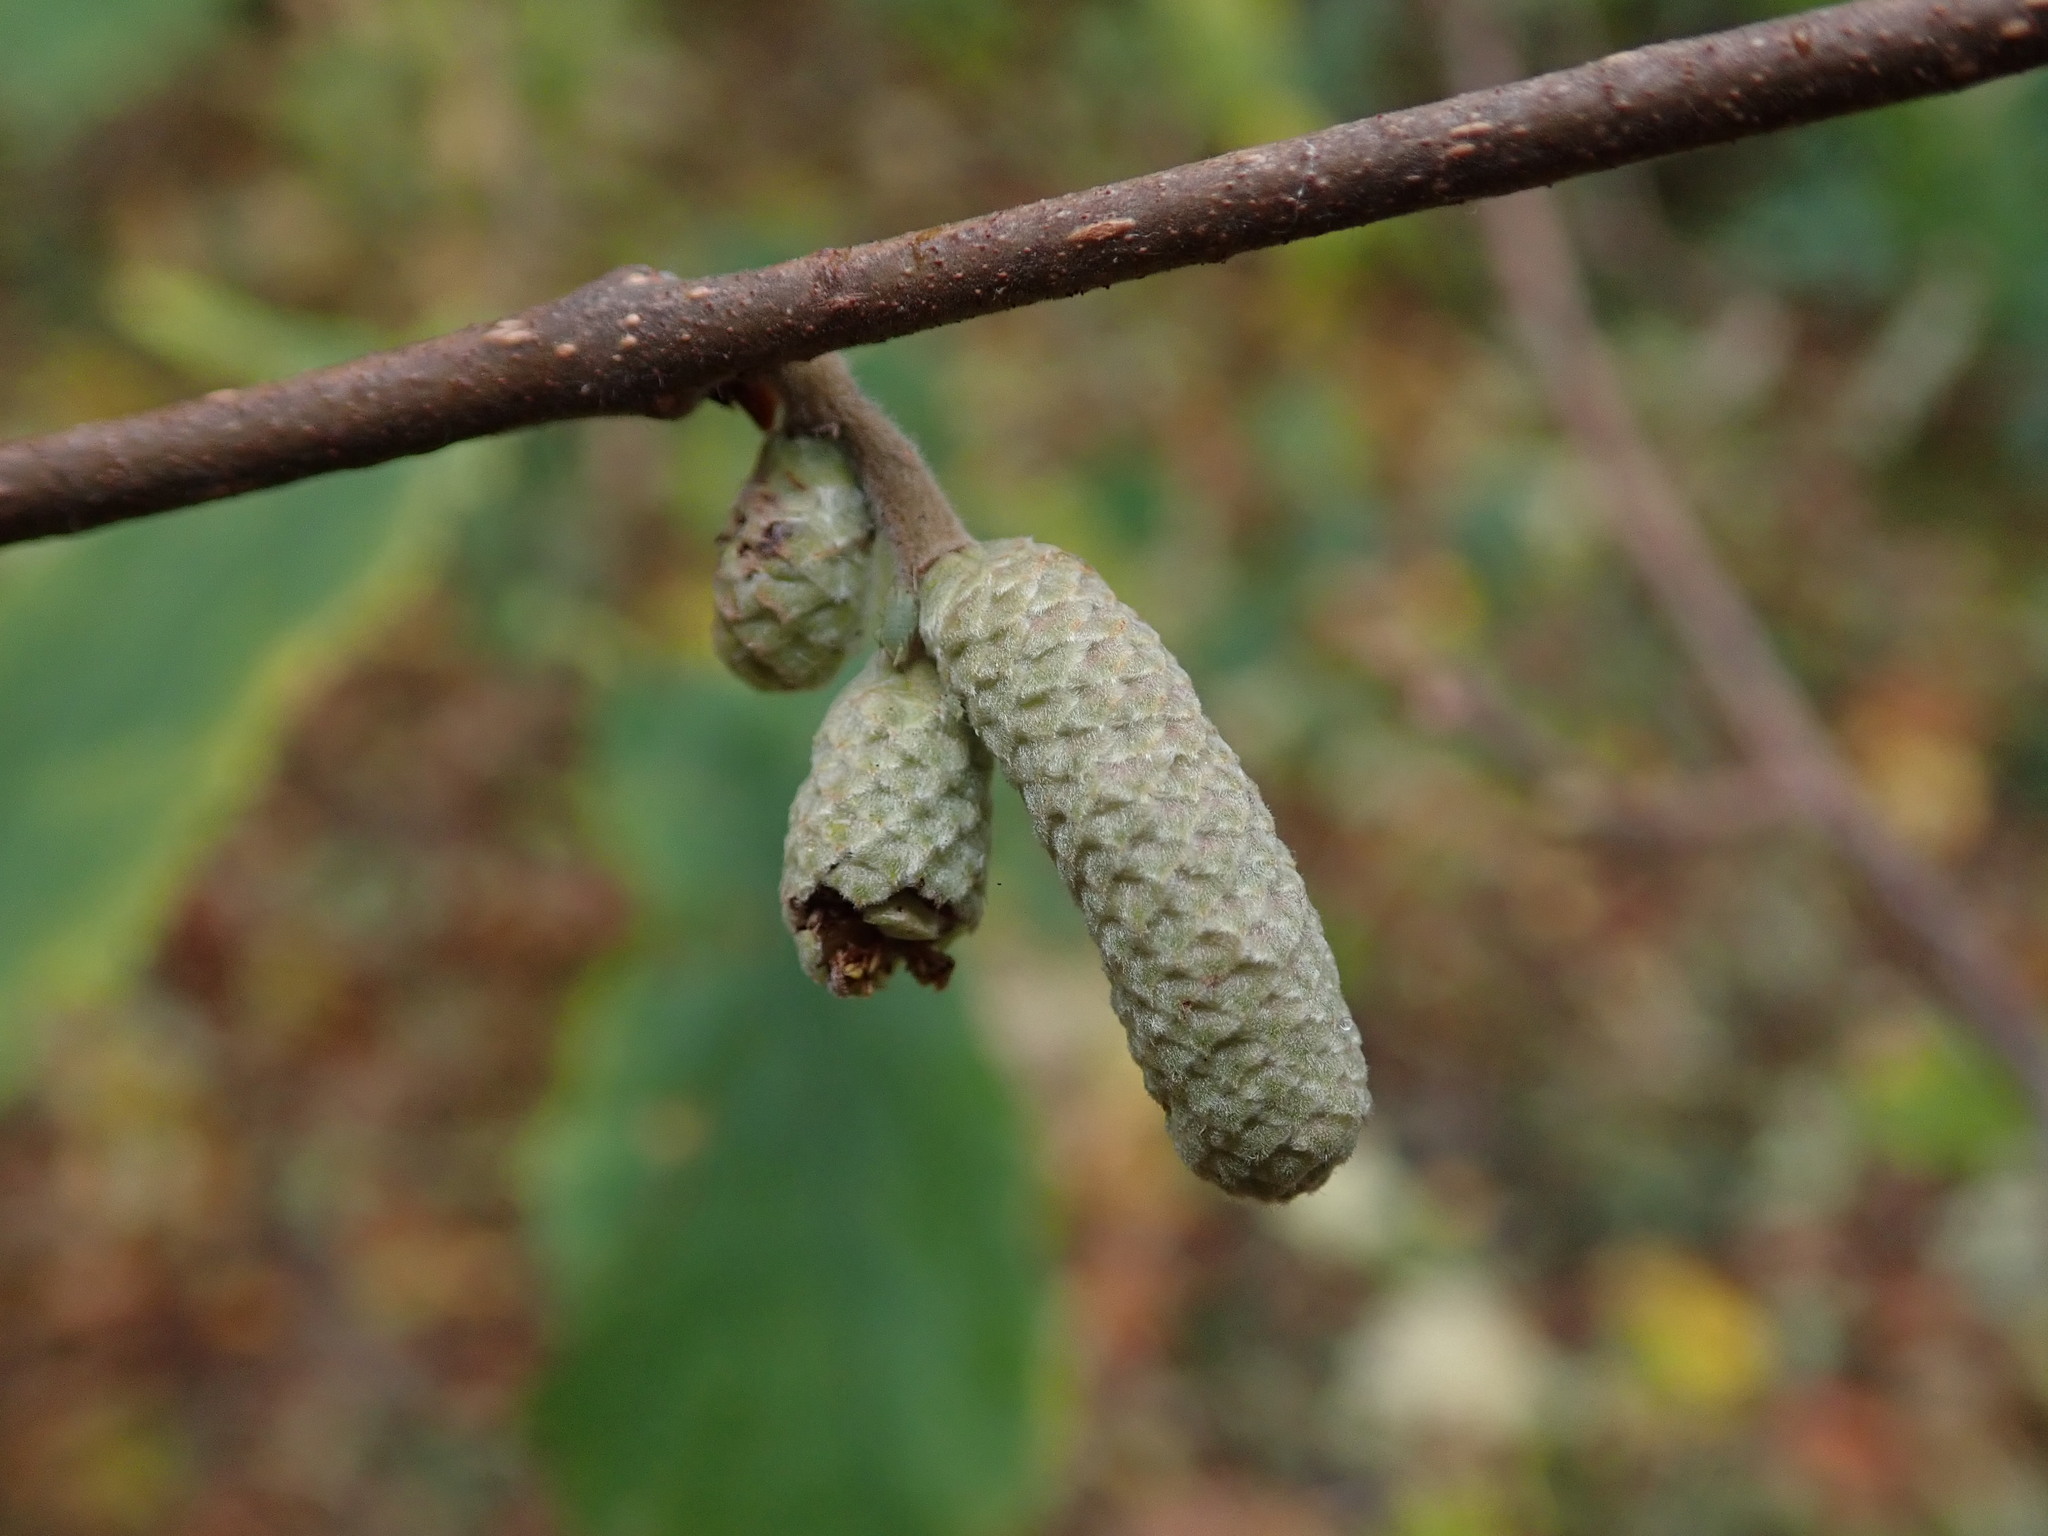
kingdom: Plantae
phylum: Tracheophyta
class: Magnoliopsida
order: Fagales
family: Betulaceae
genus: Corylus
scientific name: Corylus avellana
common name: European hazel
